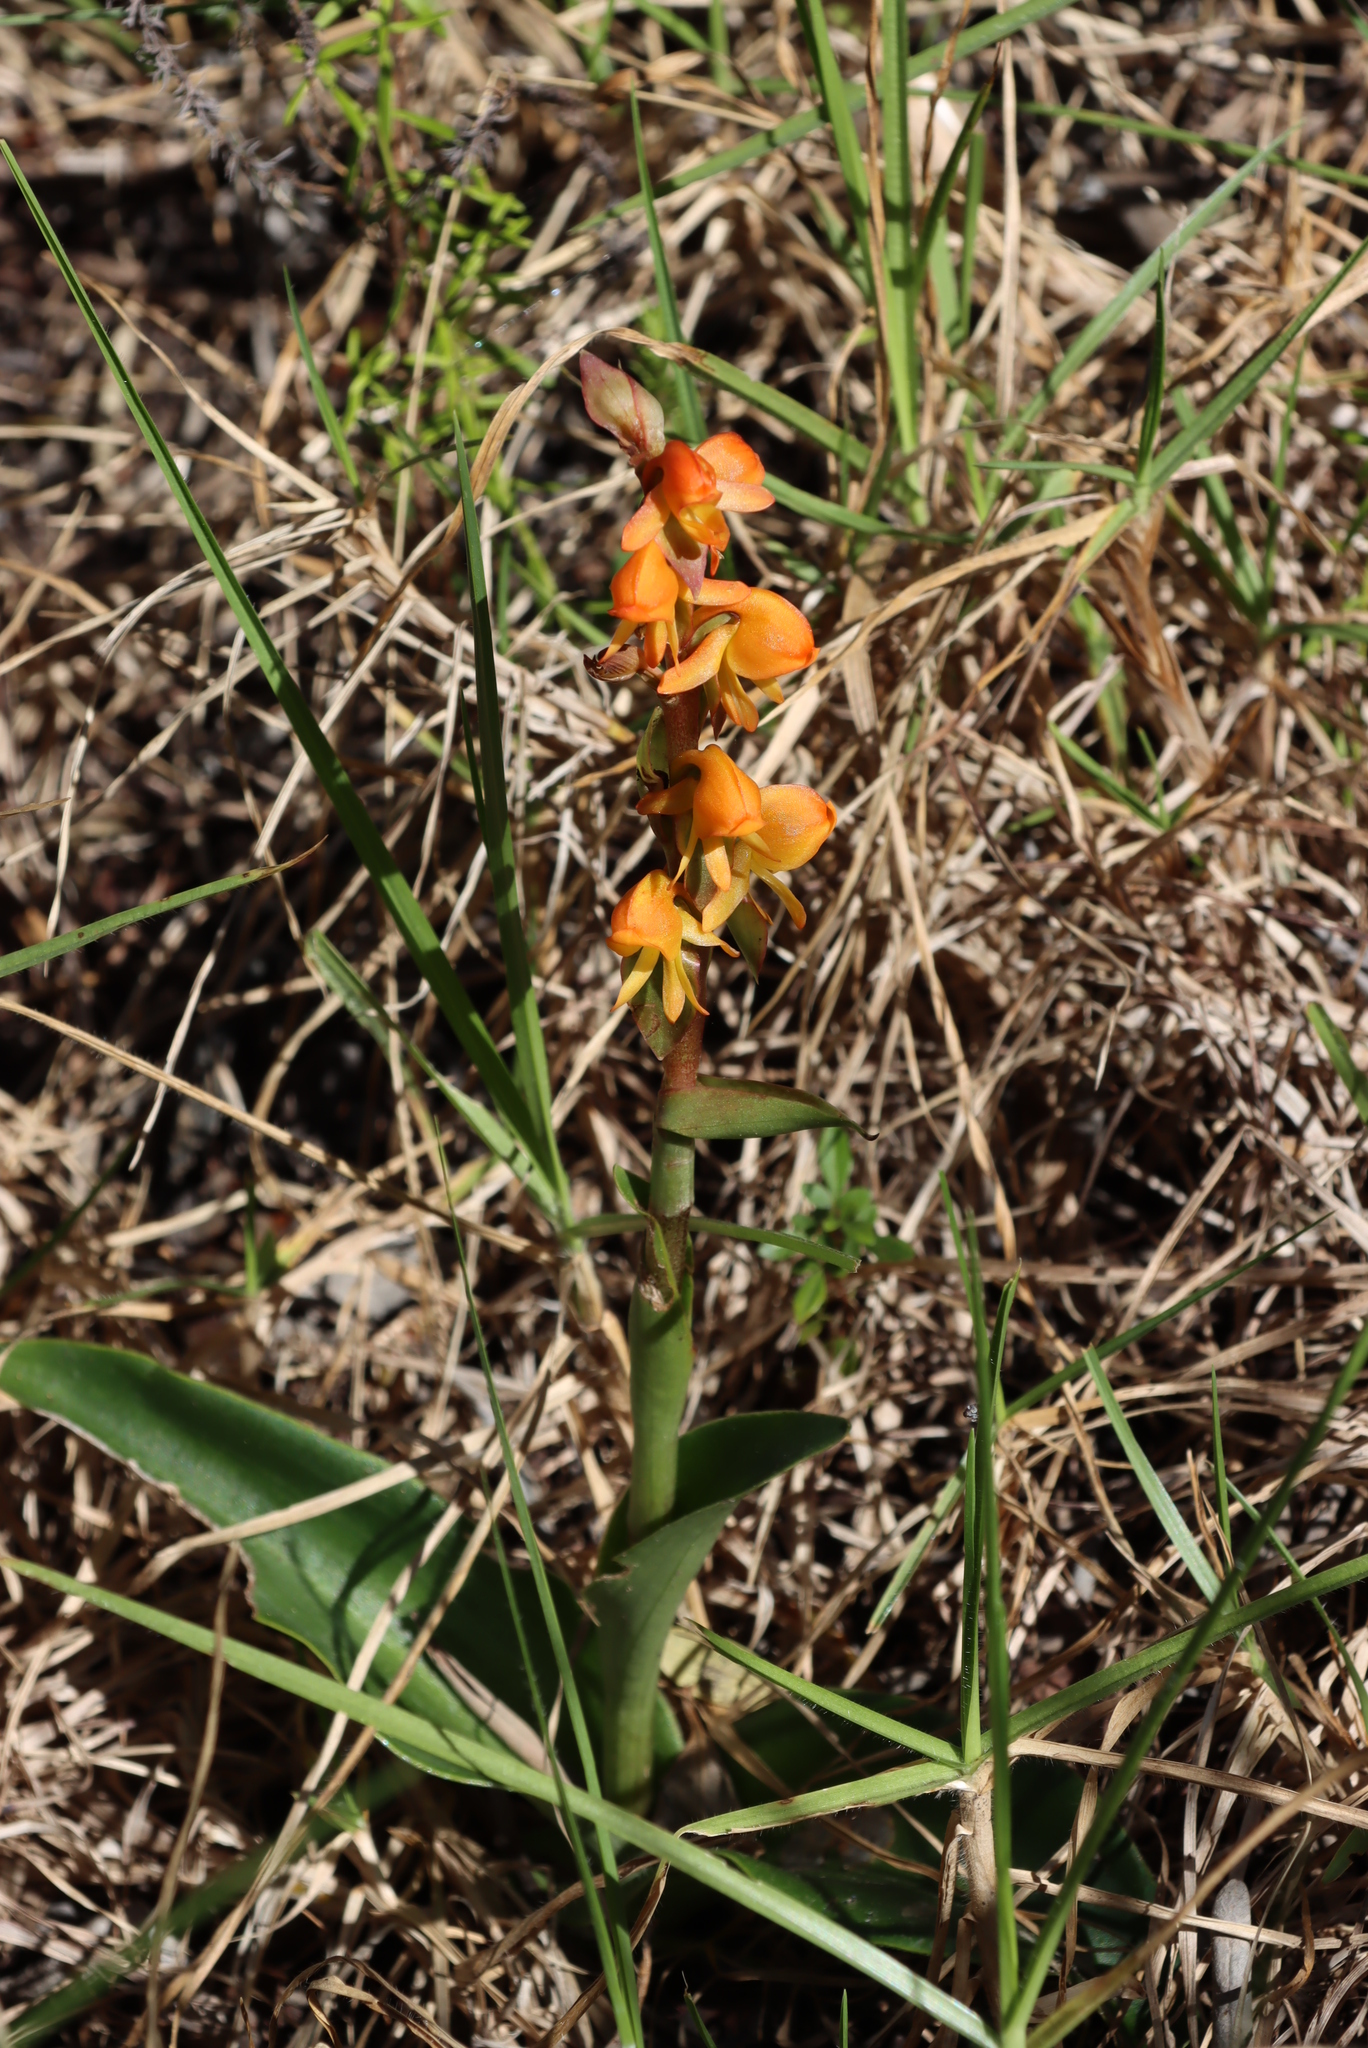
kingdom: Plantae
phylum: Tracheophyta
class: Liliopsida
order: Asparagales
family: Orchidaceae
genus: Satyrium
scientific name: Satyrium coriifolium
